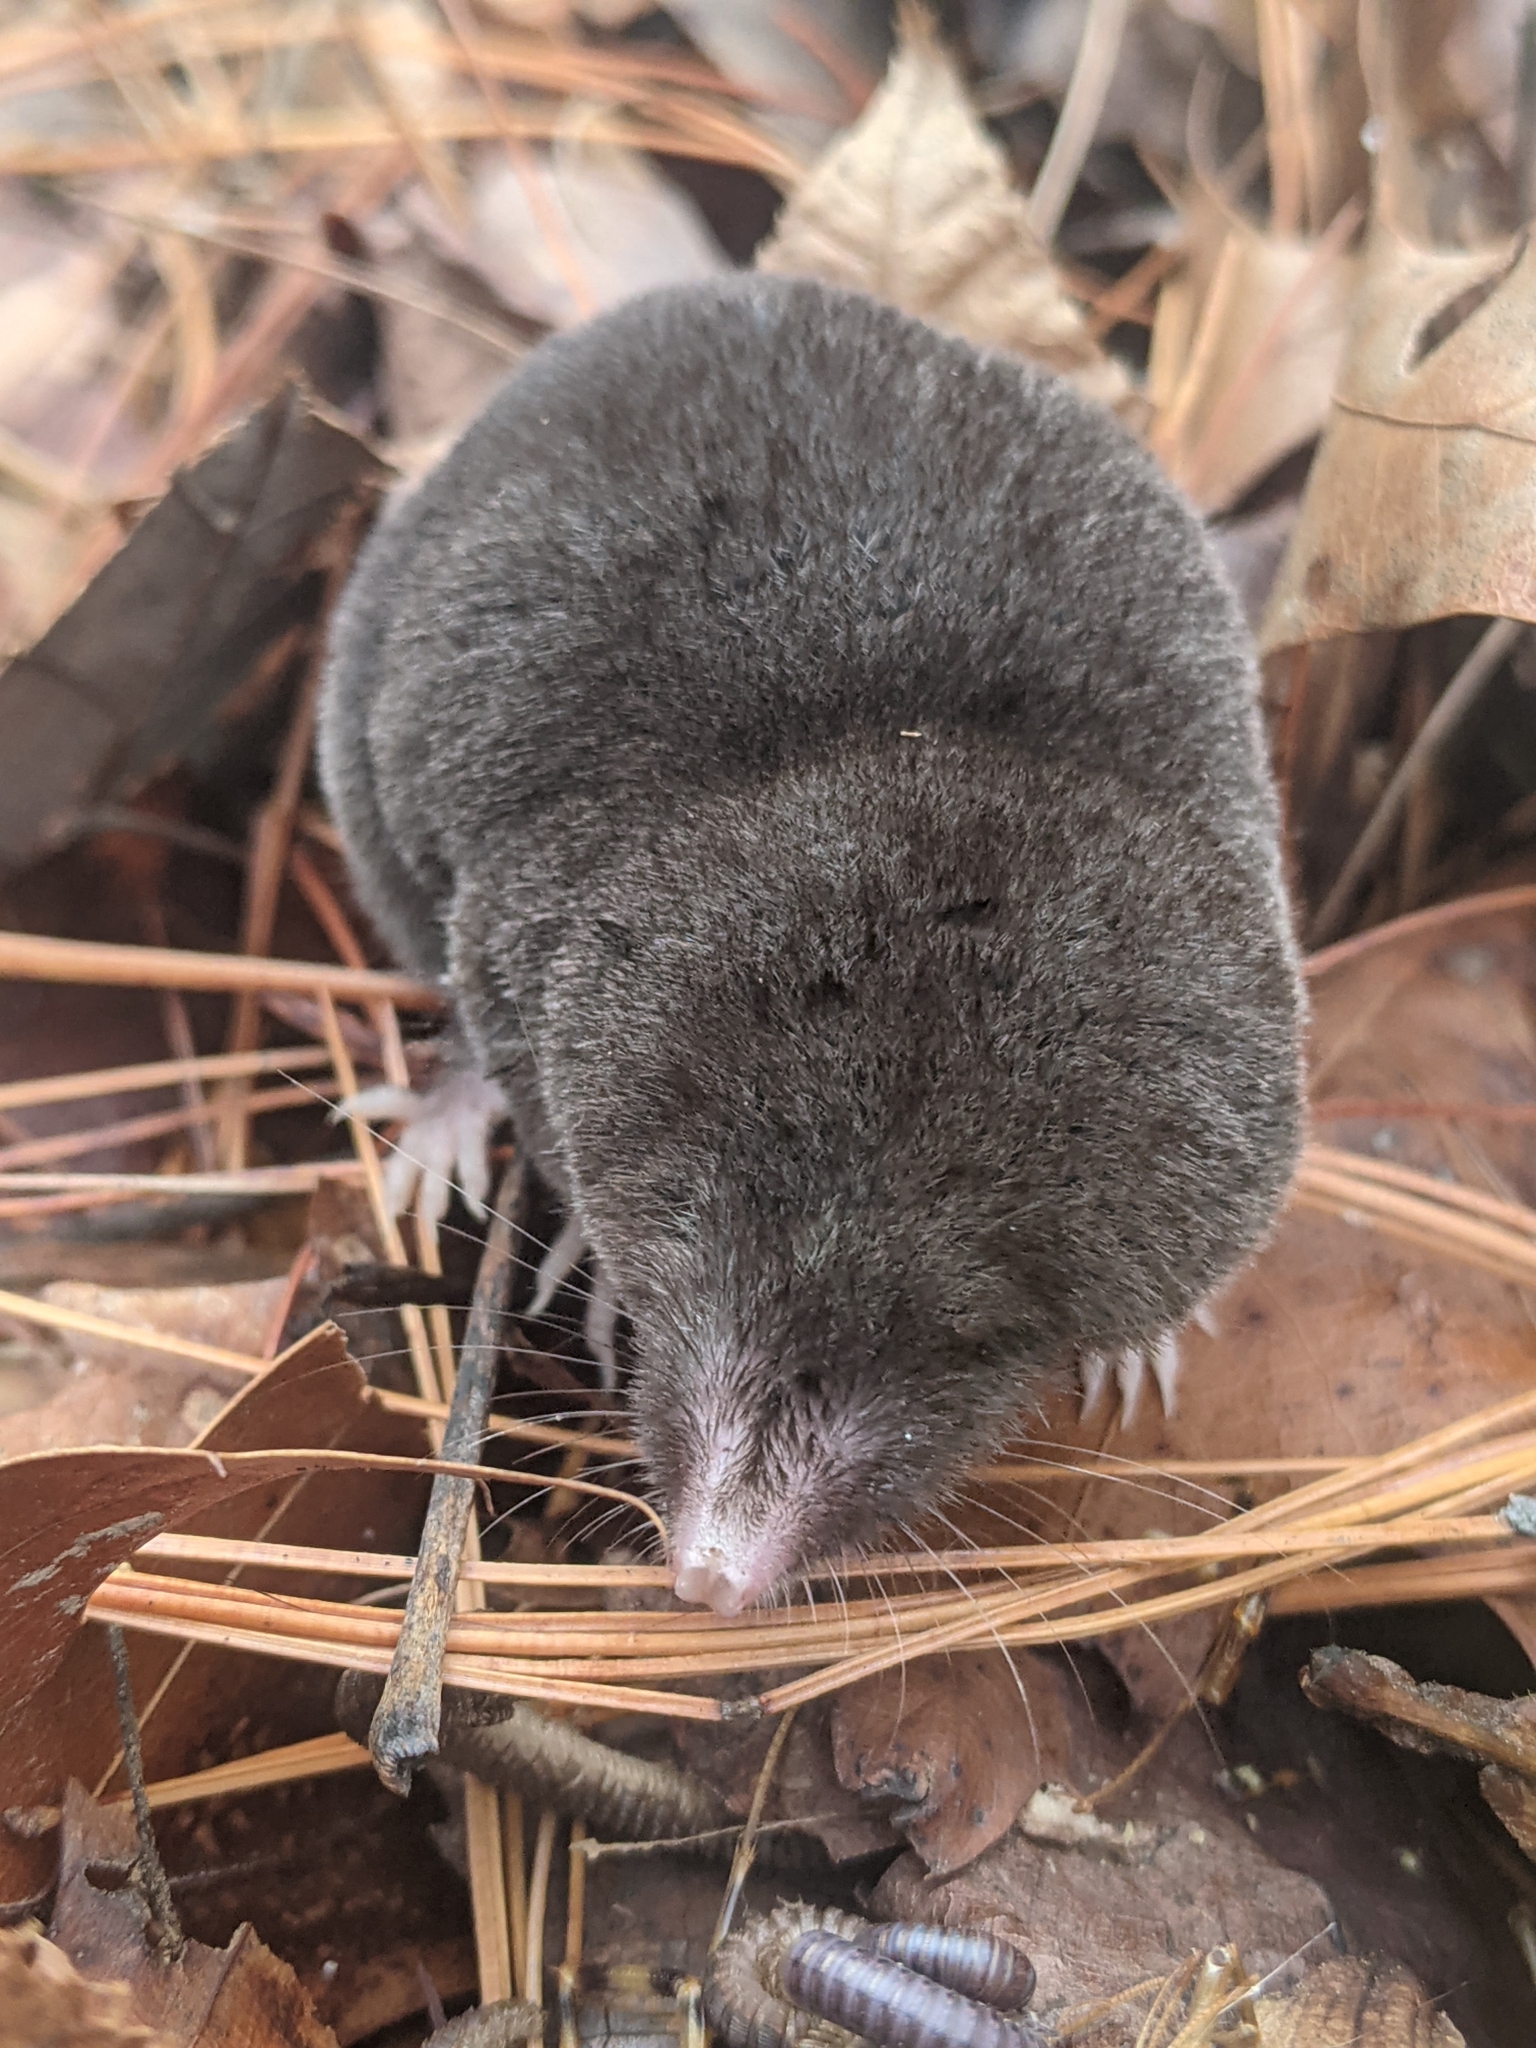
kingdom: Animalia
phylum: Chordata
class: Mammalia
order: Soricomorpha
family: Soricidae
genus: Blarina
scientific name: Blarina brevicauda
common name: Northern short-tailed shrew
